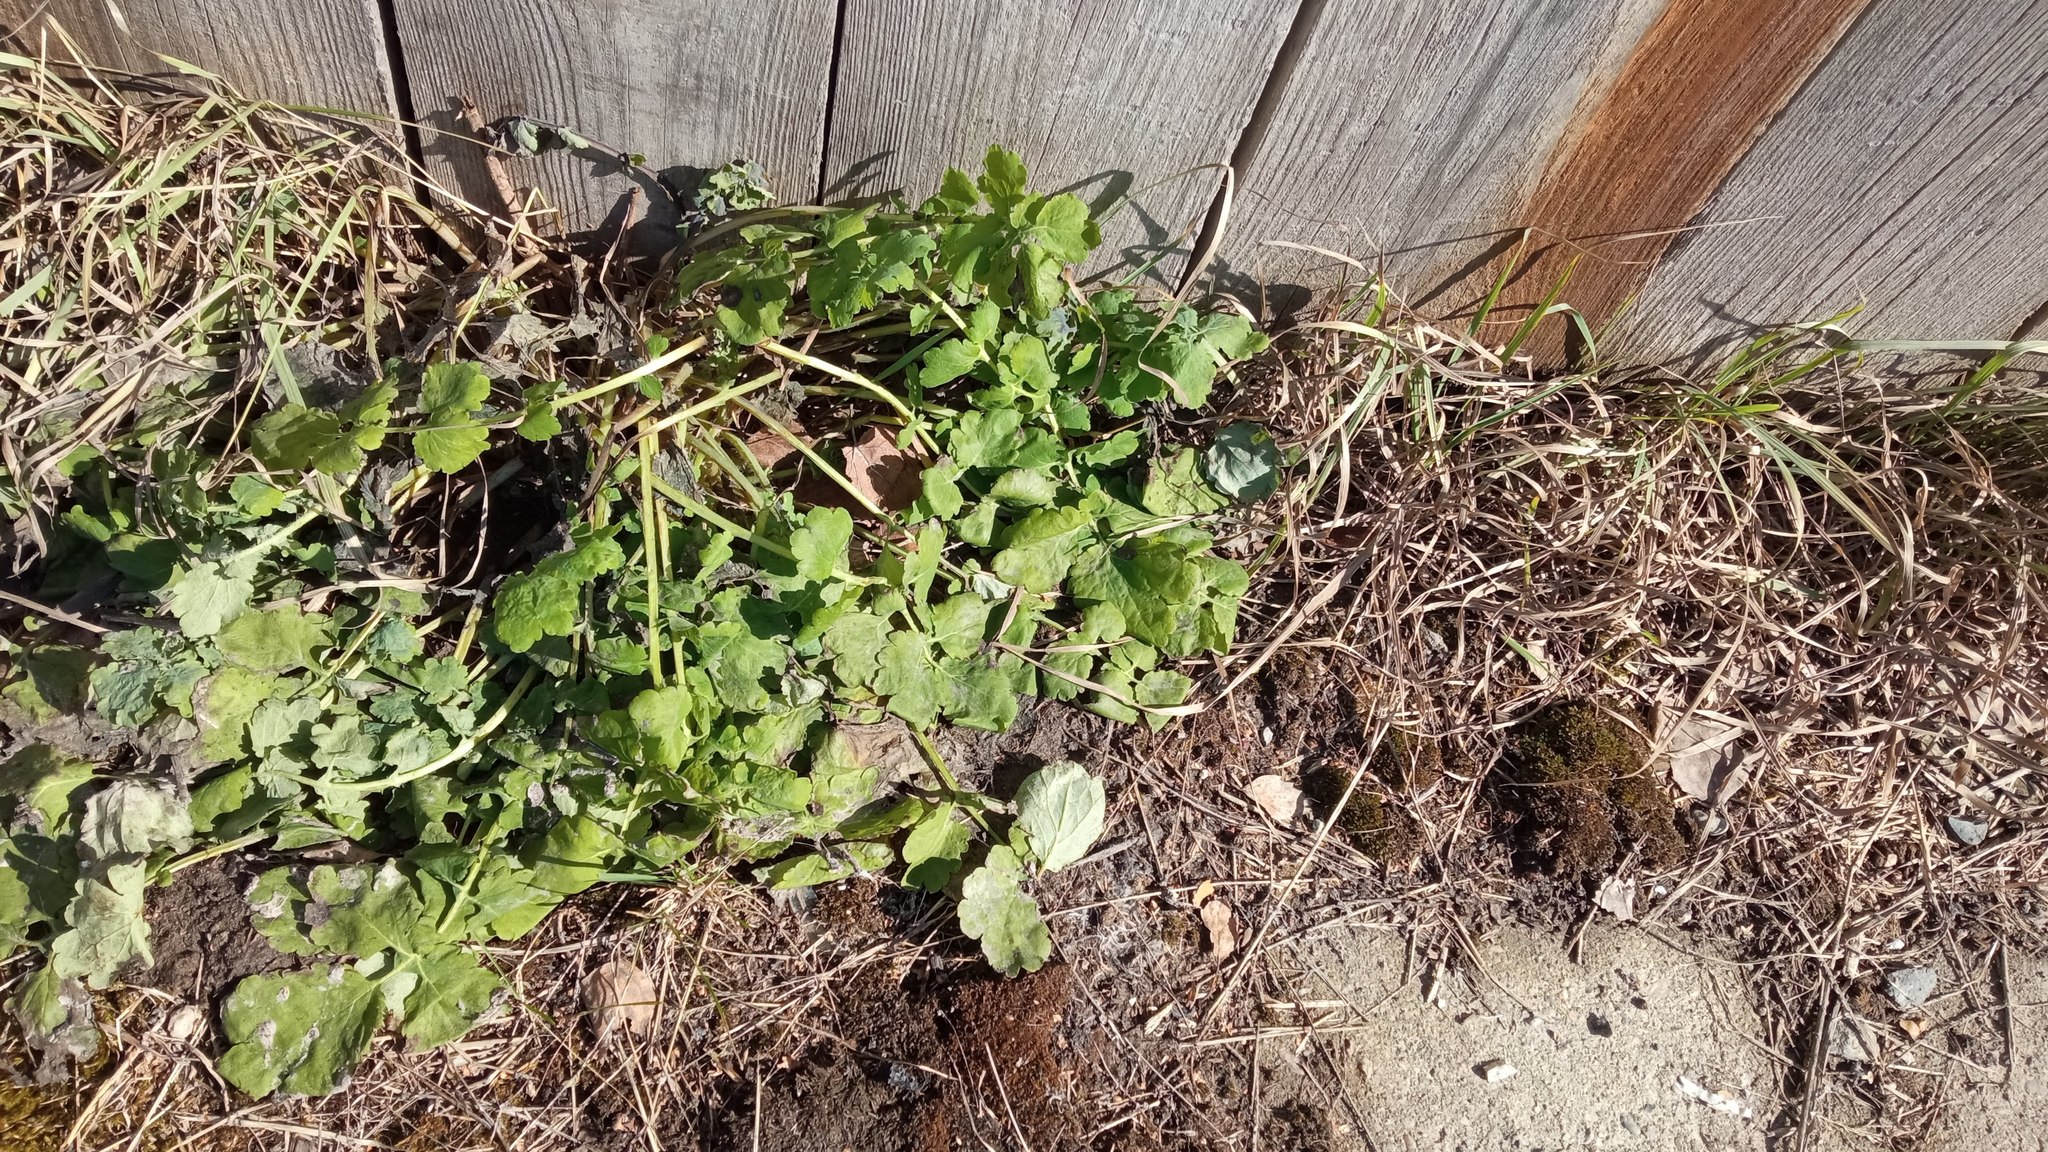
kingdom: Plantae
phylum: Tracheophyta
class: Magnoliopsida
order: Ranunculales
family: Papaveraceae
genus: Chelidonium
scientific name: Chelidonium majus
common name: Greater celandine
